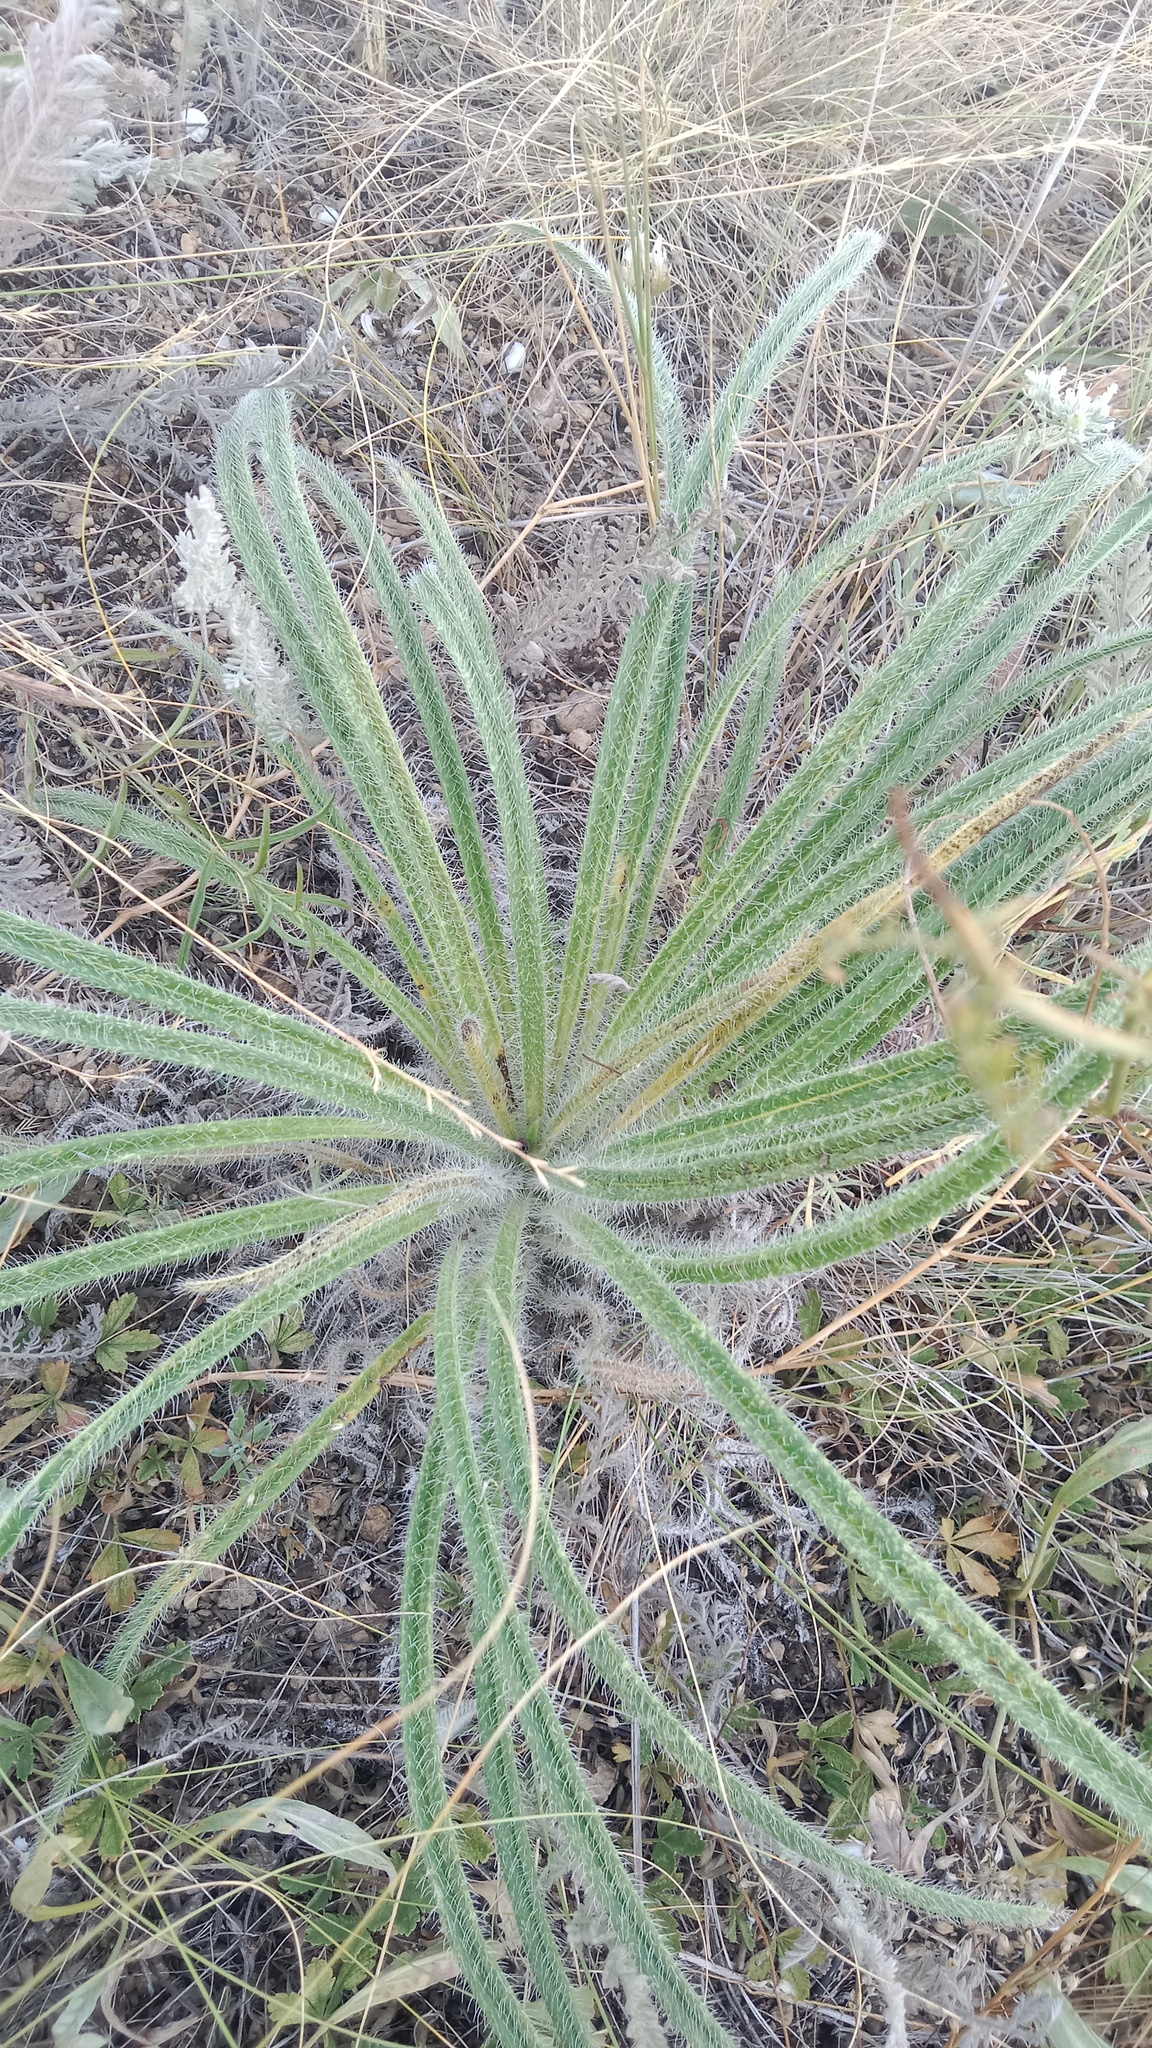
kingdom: Plantae
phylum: Tracheophyta
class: Magnoliopsida
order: Boraginales
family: Boraginaceae
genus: Onosma
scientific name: Onosma visianii
